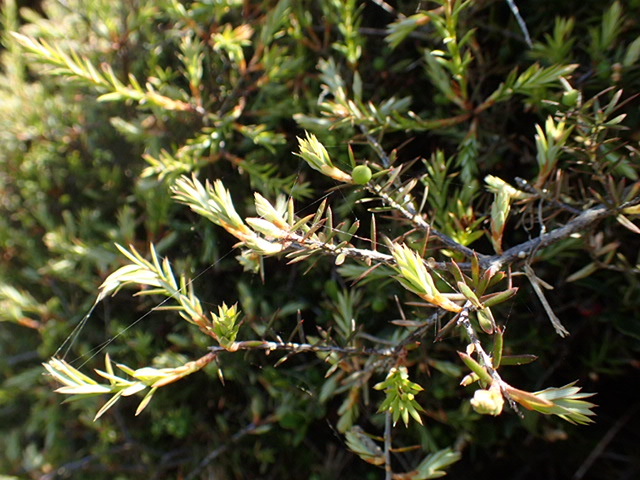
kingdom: Plantae
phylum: Tracheophyta
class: Magnoliopsida
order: Ericales
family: Ericaceae
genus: Leptecophylla
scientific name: Leptecophylla juniperina
